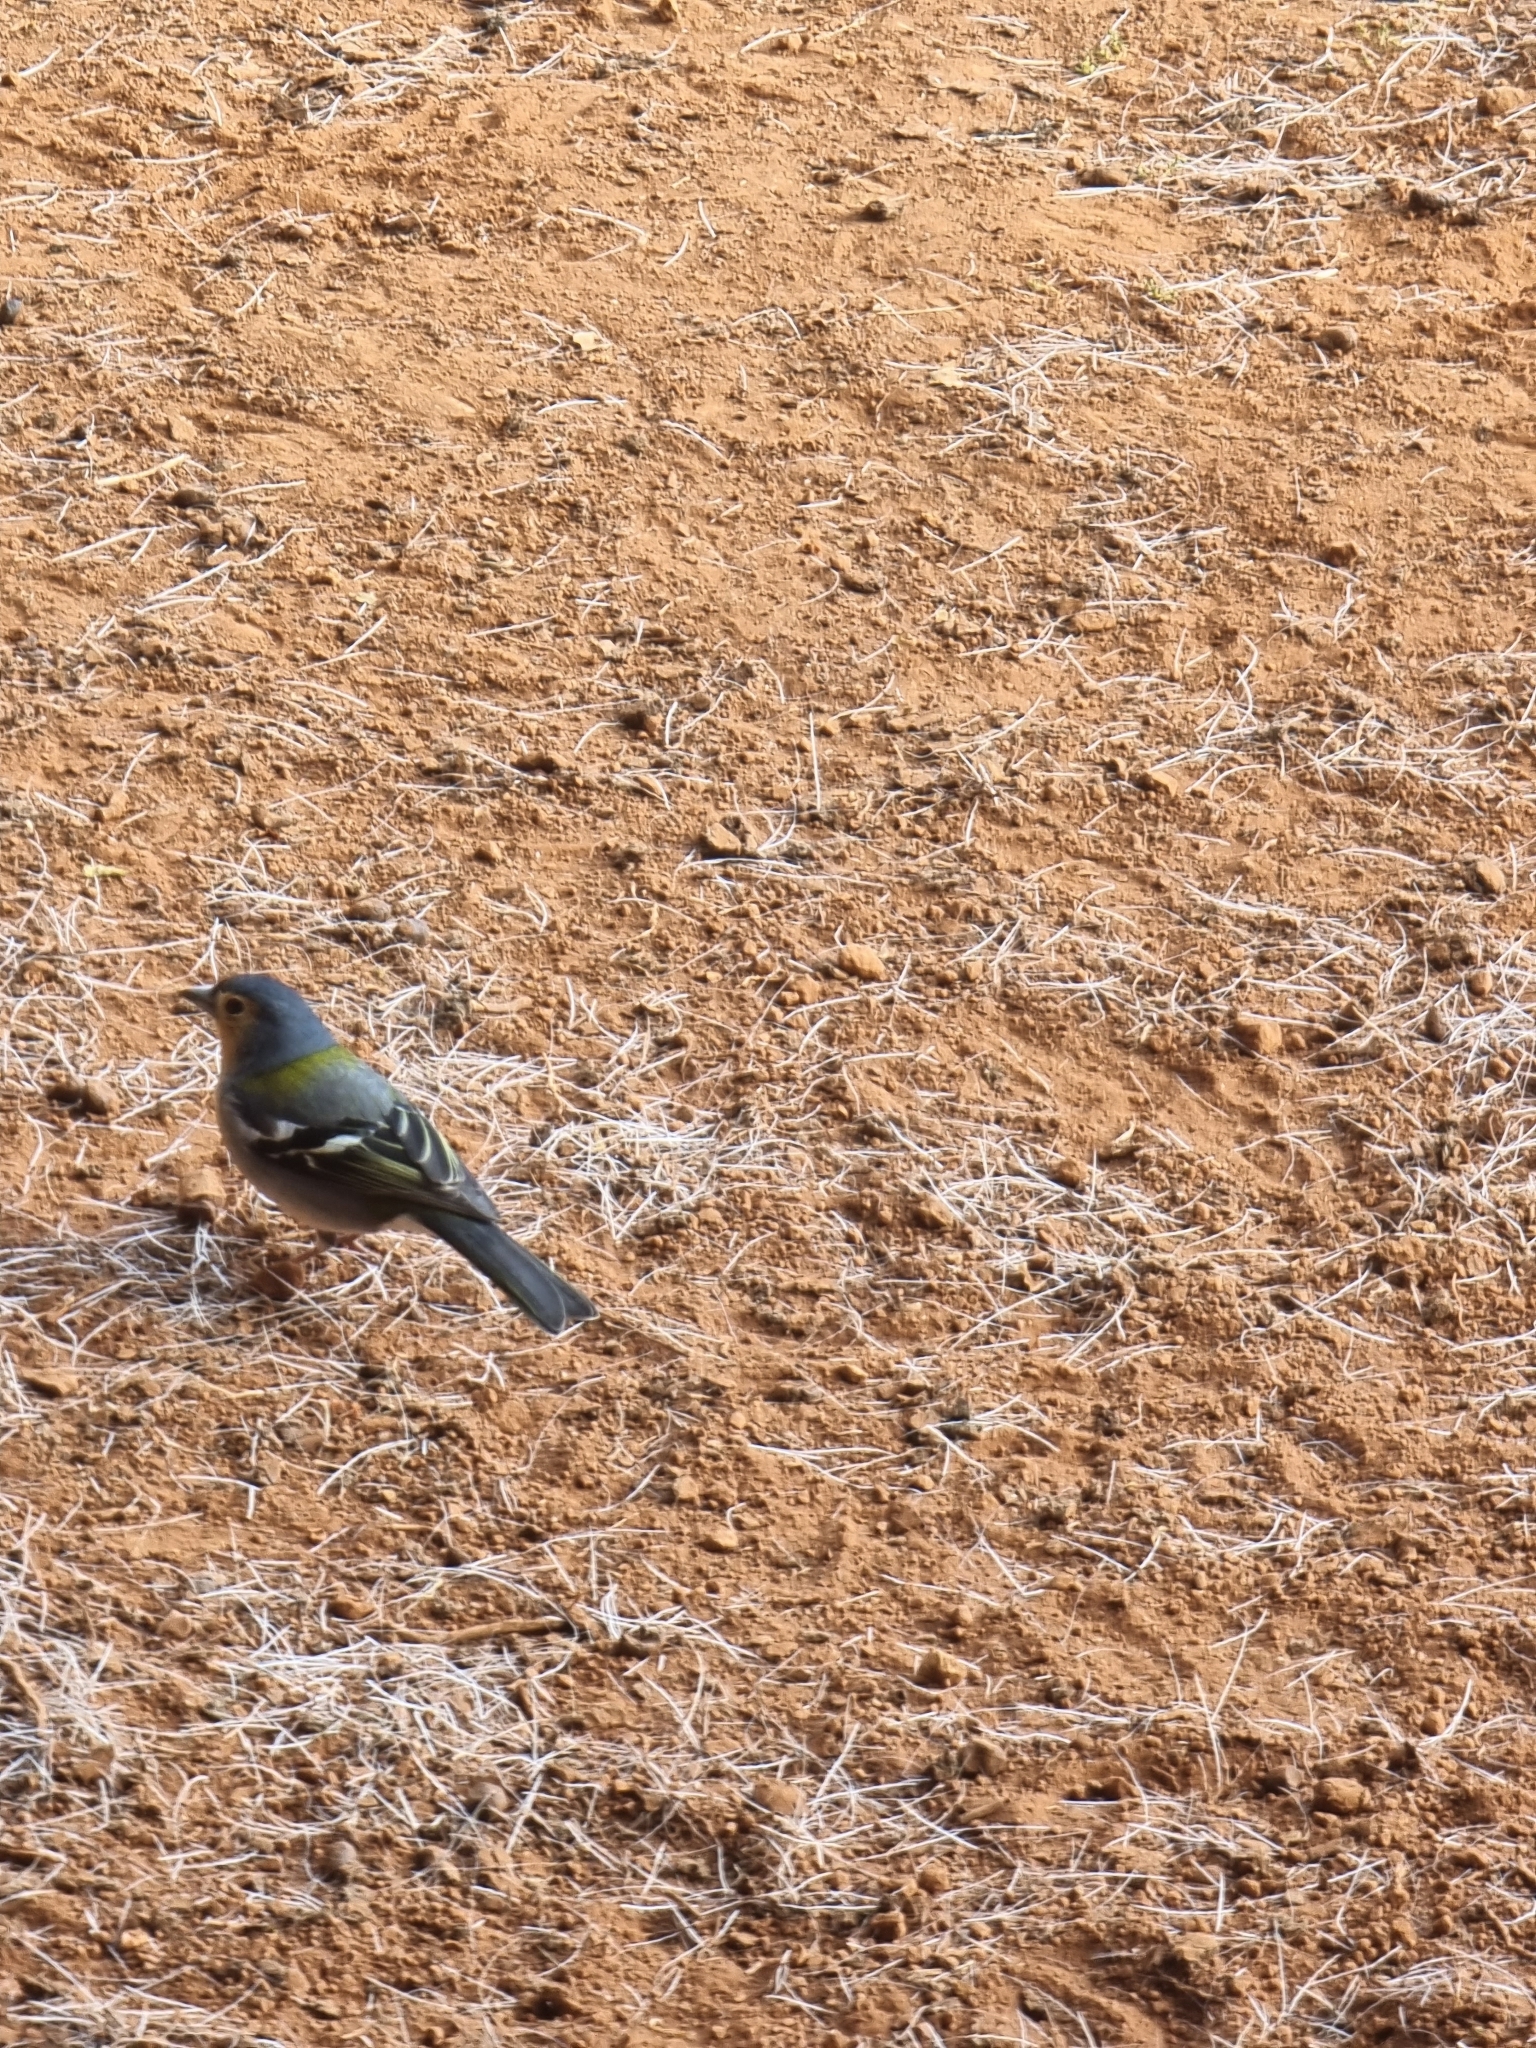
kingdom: Animalia
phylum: Chordata
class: Aves
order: Passeriformes
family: Fringillidae
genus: Fringilla
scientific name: Fringilla maderensis
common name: Madeira chaffinch
